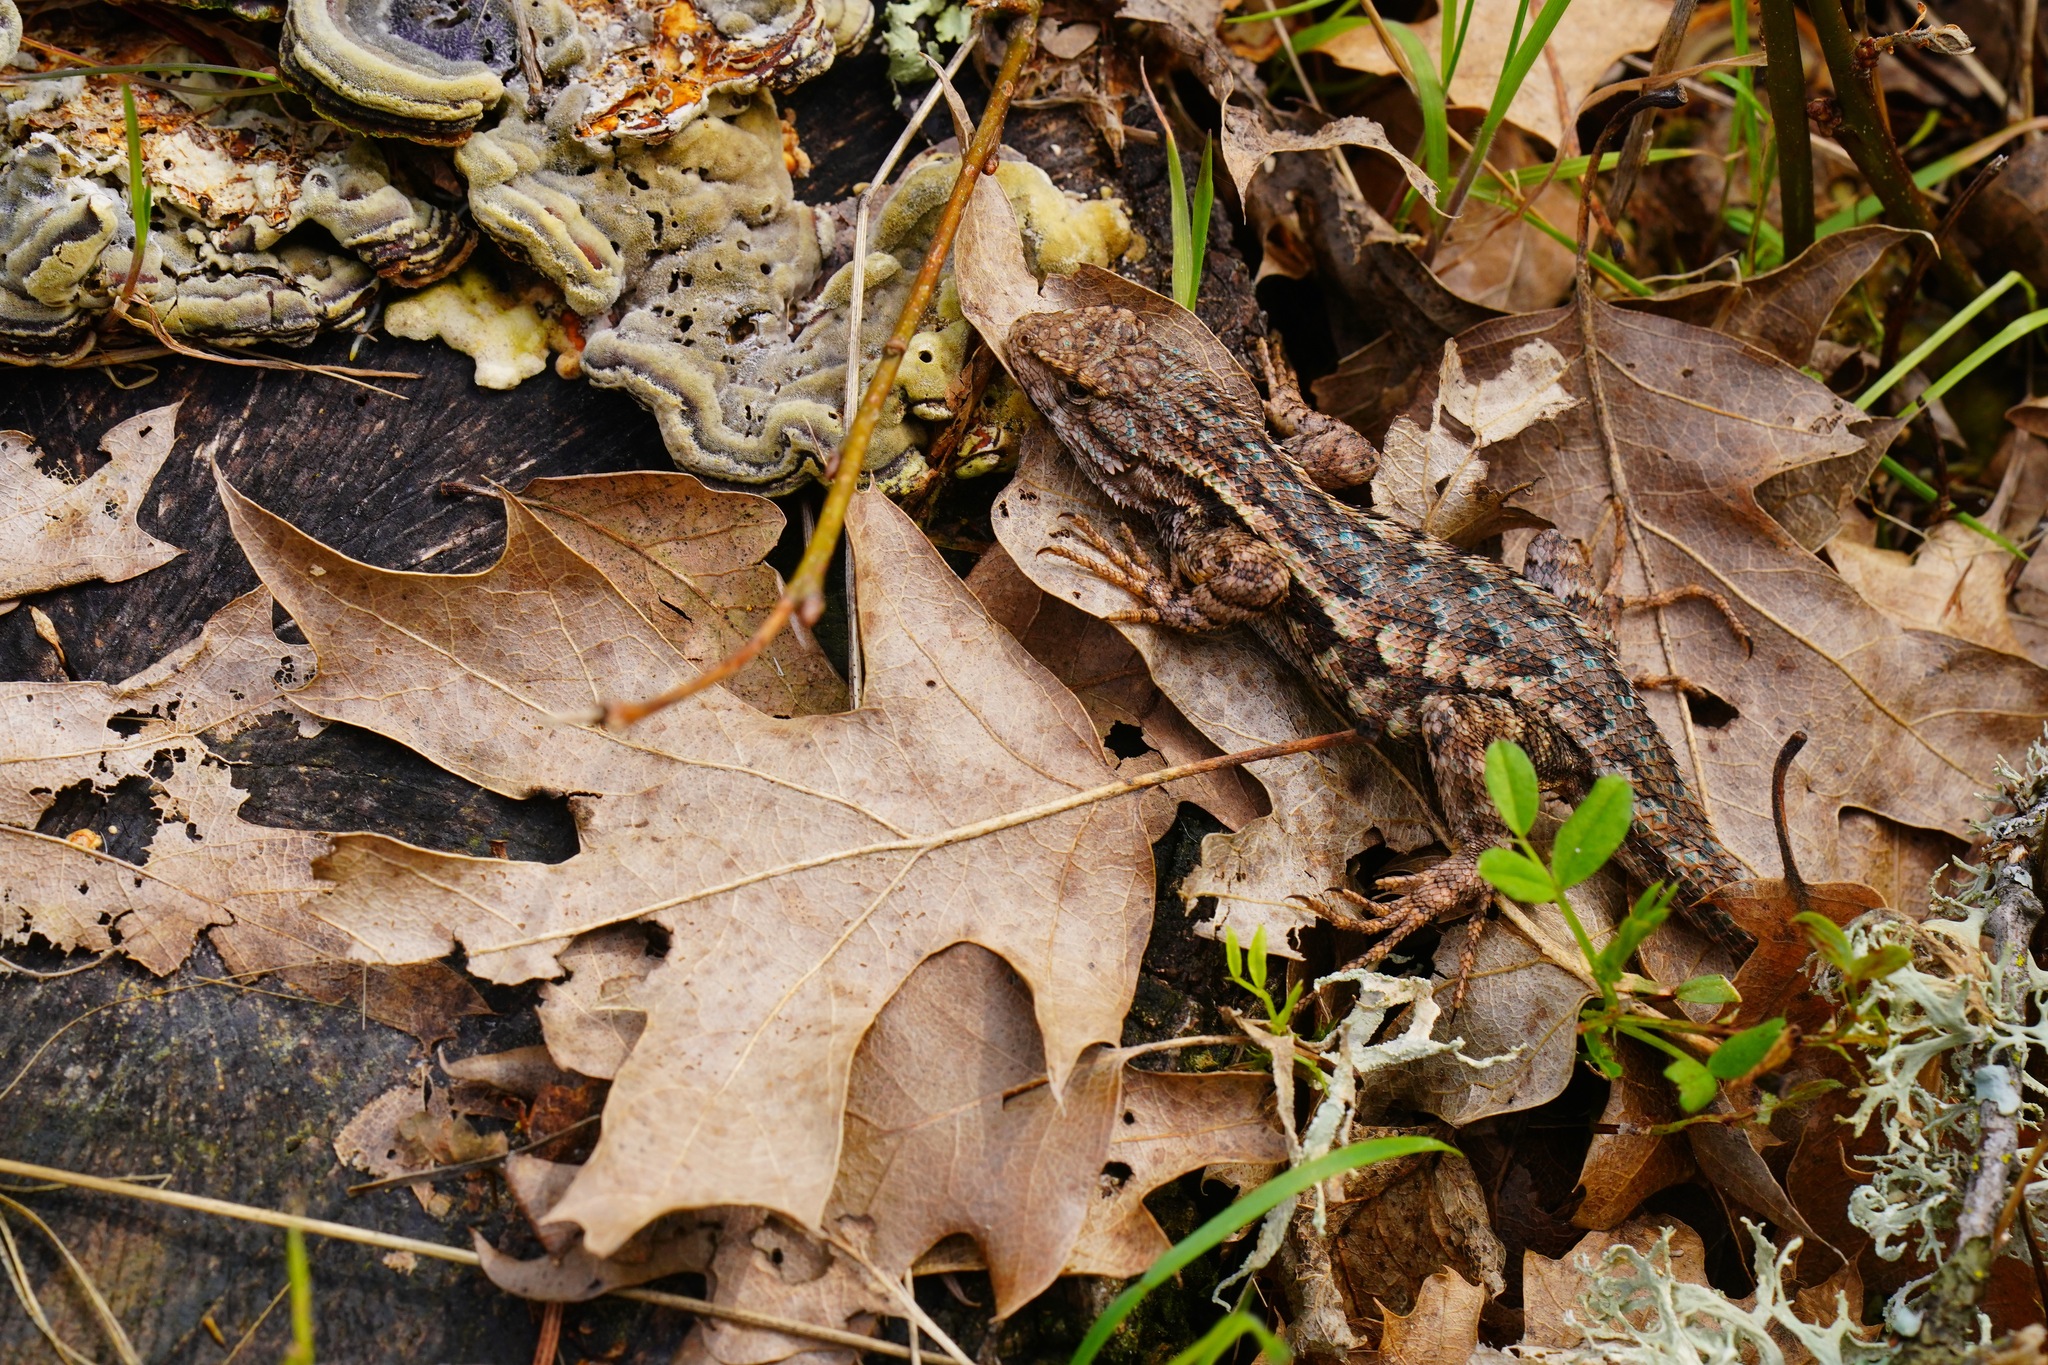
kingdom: Animalia
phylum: Chordata
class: Squamata
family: Phrynosomatidae
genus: Sceloporus
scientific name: Sceloporus occidentalis
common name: Western fence lizard
